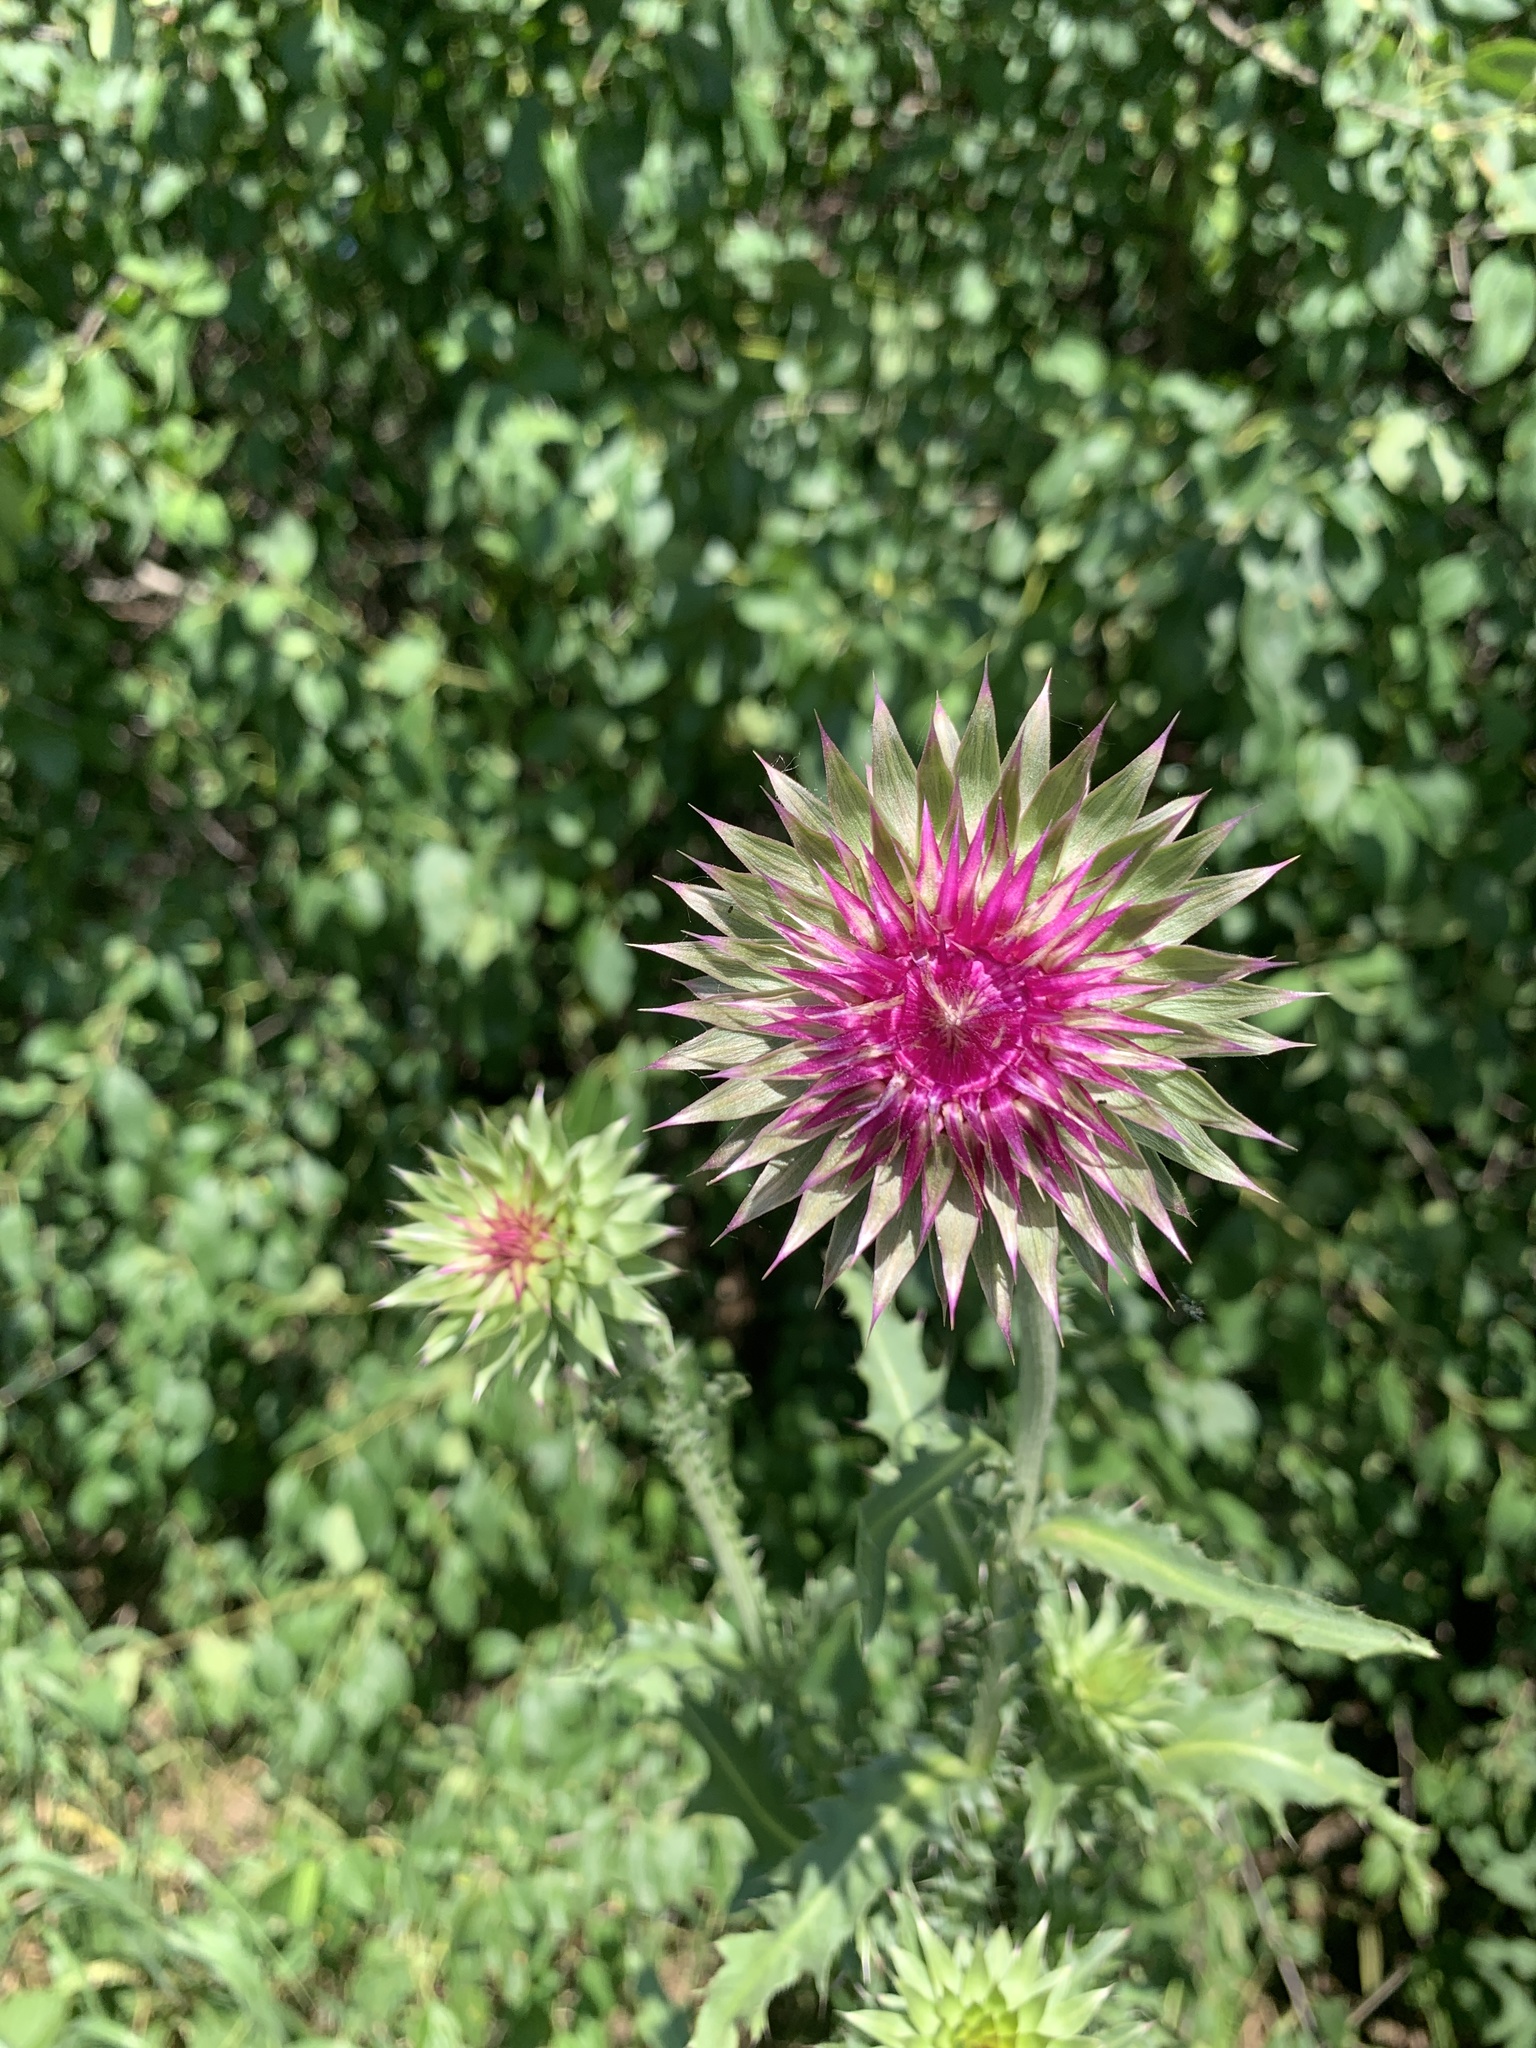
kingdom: Plantae
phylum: Tracheophyta
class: Magnoliopsida
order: Asterales
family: Asteraceae
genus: Carduus
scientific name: Carduus nutans
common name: Musk thistle
